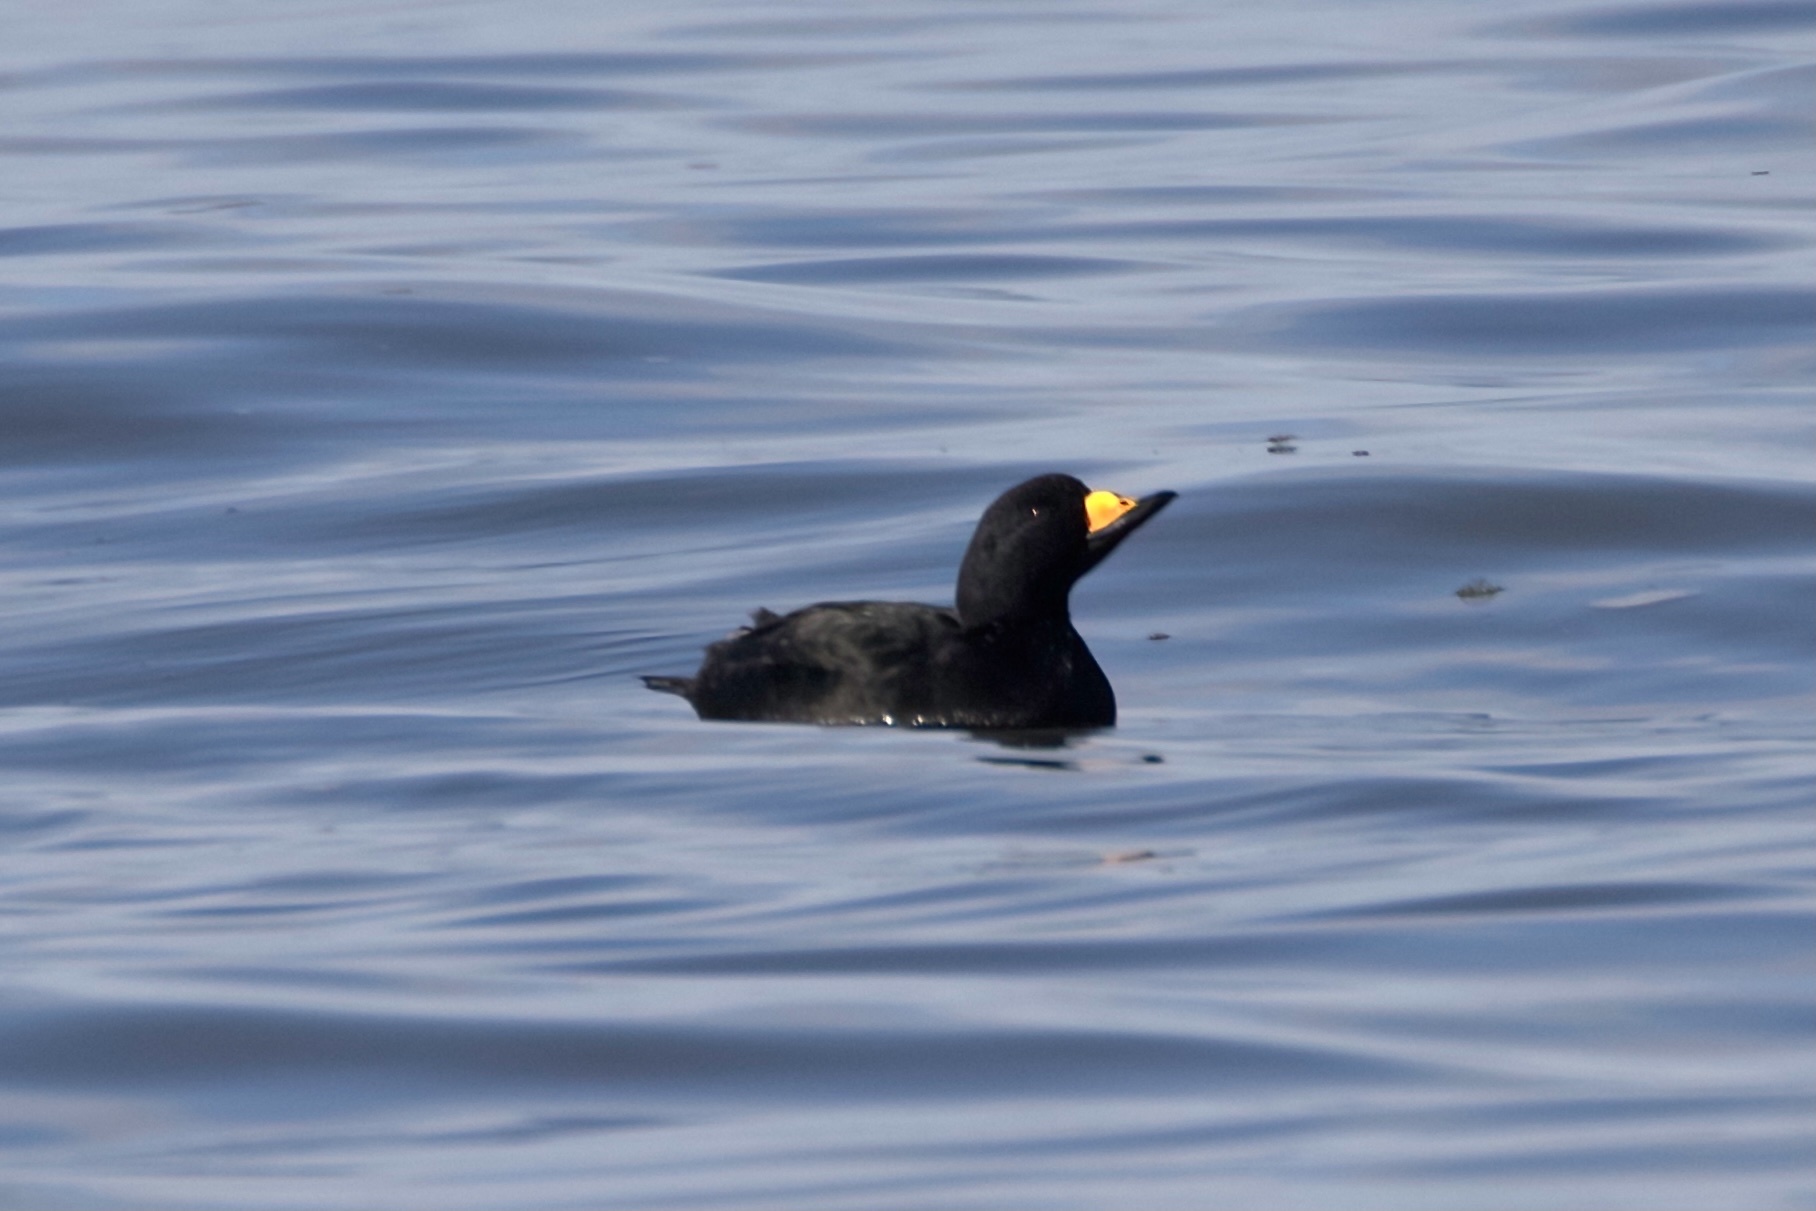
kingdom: Animalia
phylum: Chordata
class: Aves
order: Anseriformes
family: Anatidae
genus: Melanitta
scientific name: Melanitta americana
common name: Black scoter
